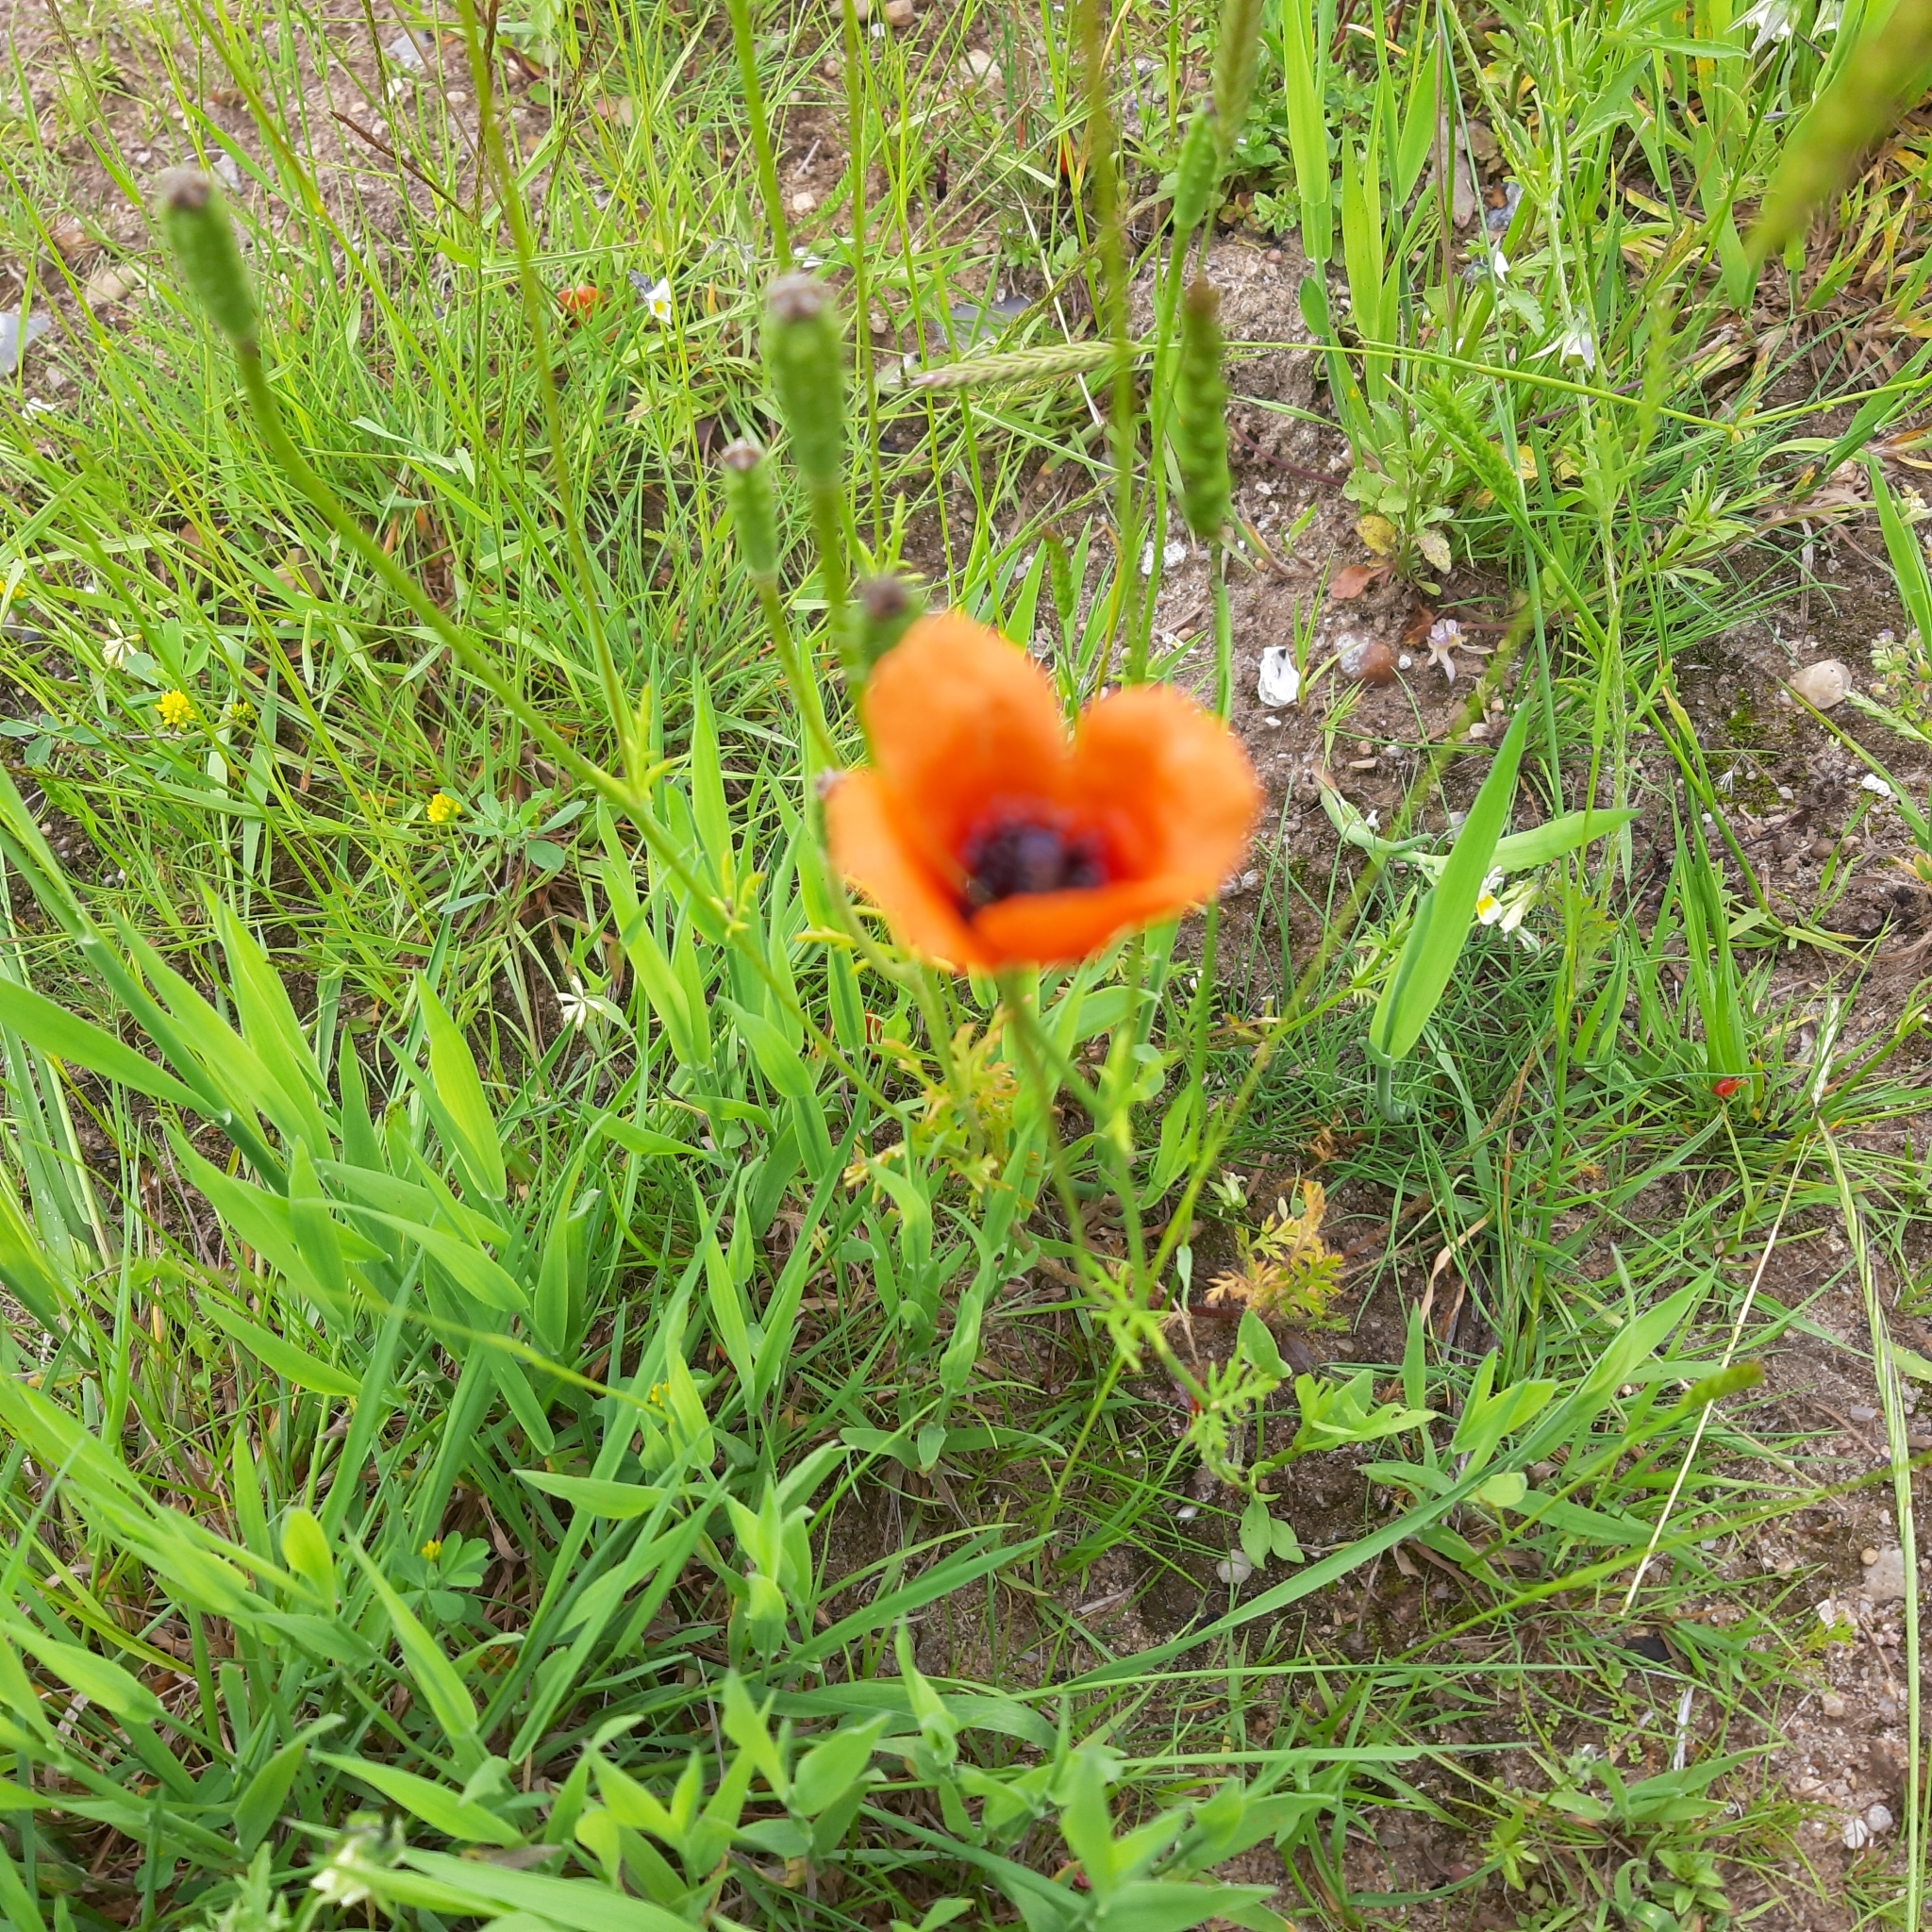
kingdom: Plantae
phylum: Tracheophyta
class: Magnoliopsida
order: Ranunculales
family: Papaveraceae
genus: Roemeria
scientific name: Roemeria argemone
